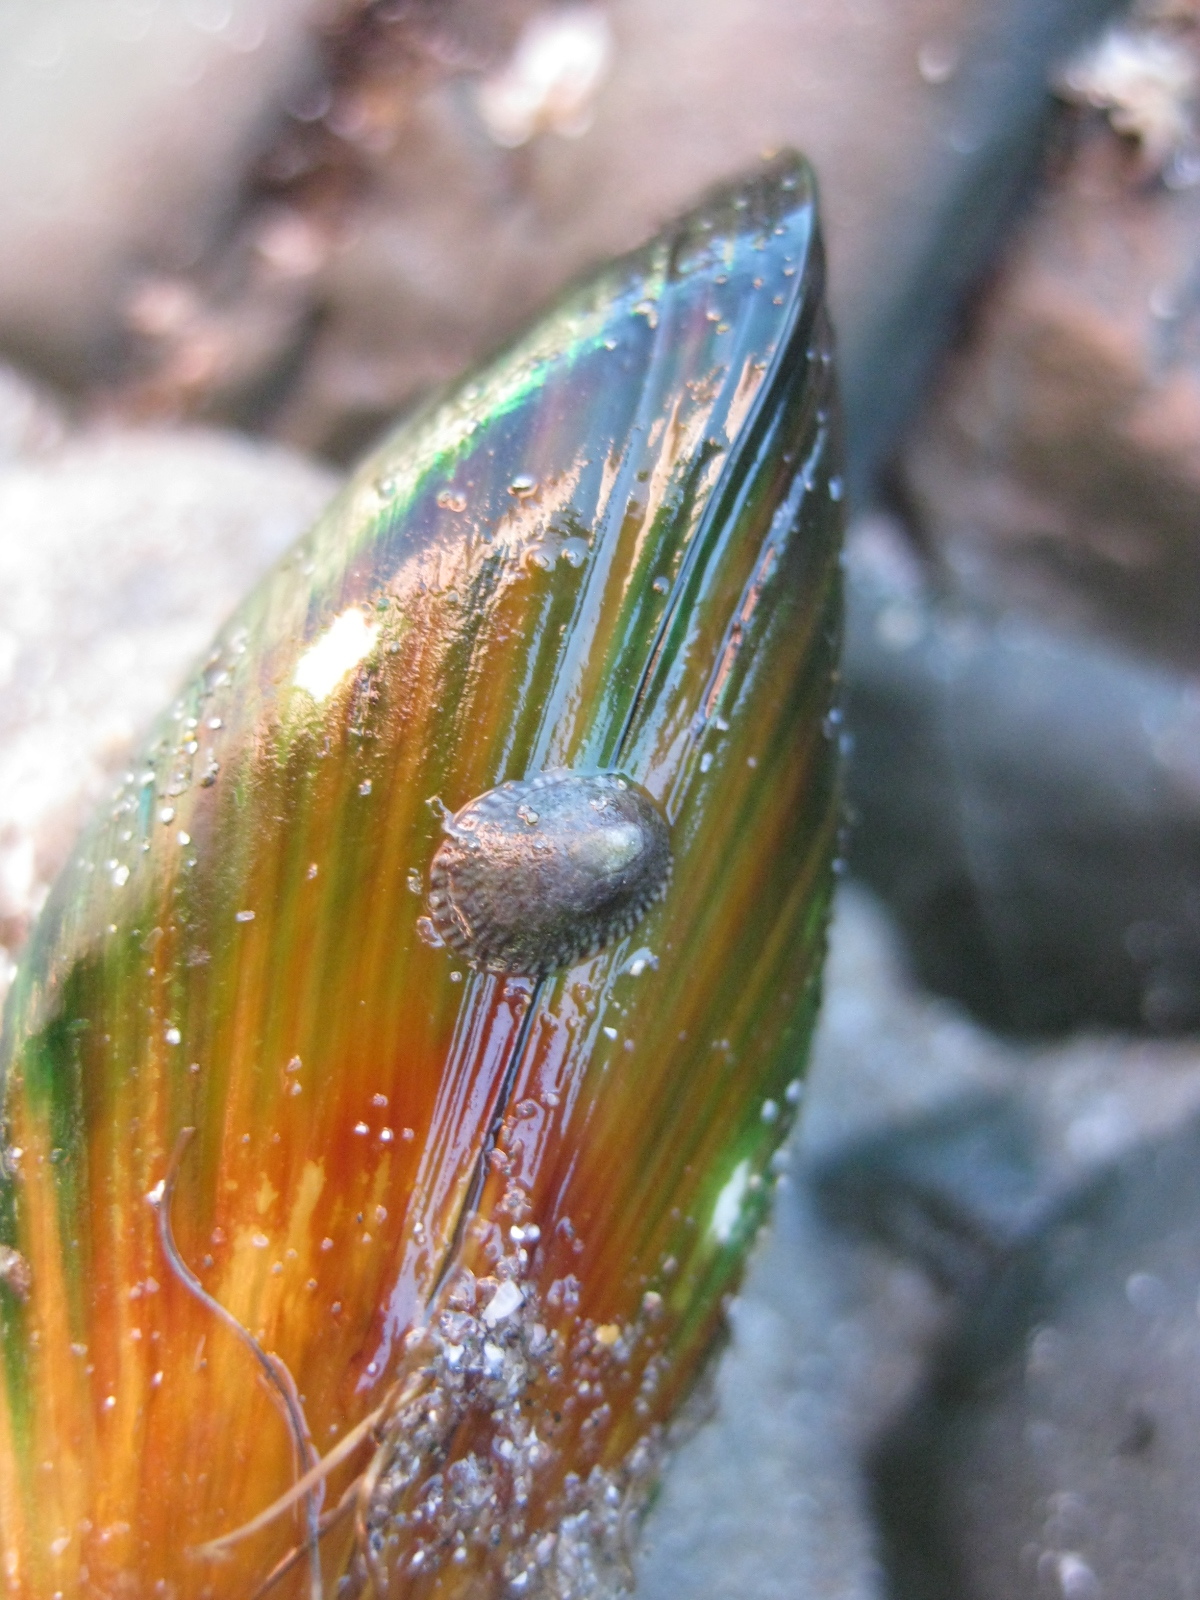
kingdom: Animalia
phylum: Mollusca
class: Gastropoda
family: Lottiidae
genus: Notoacmea
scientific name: Notoacmea turbatrix
